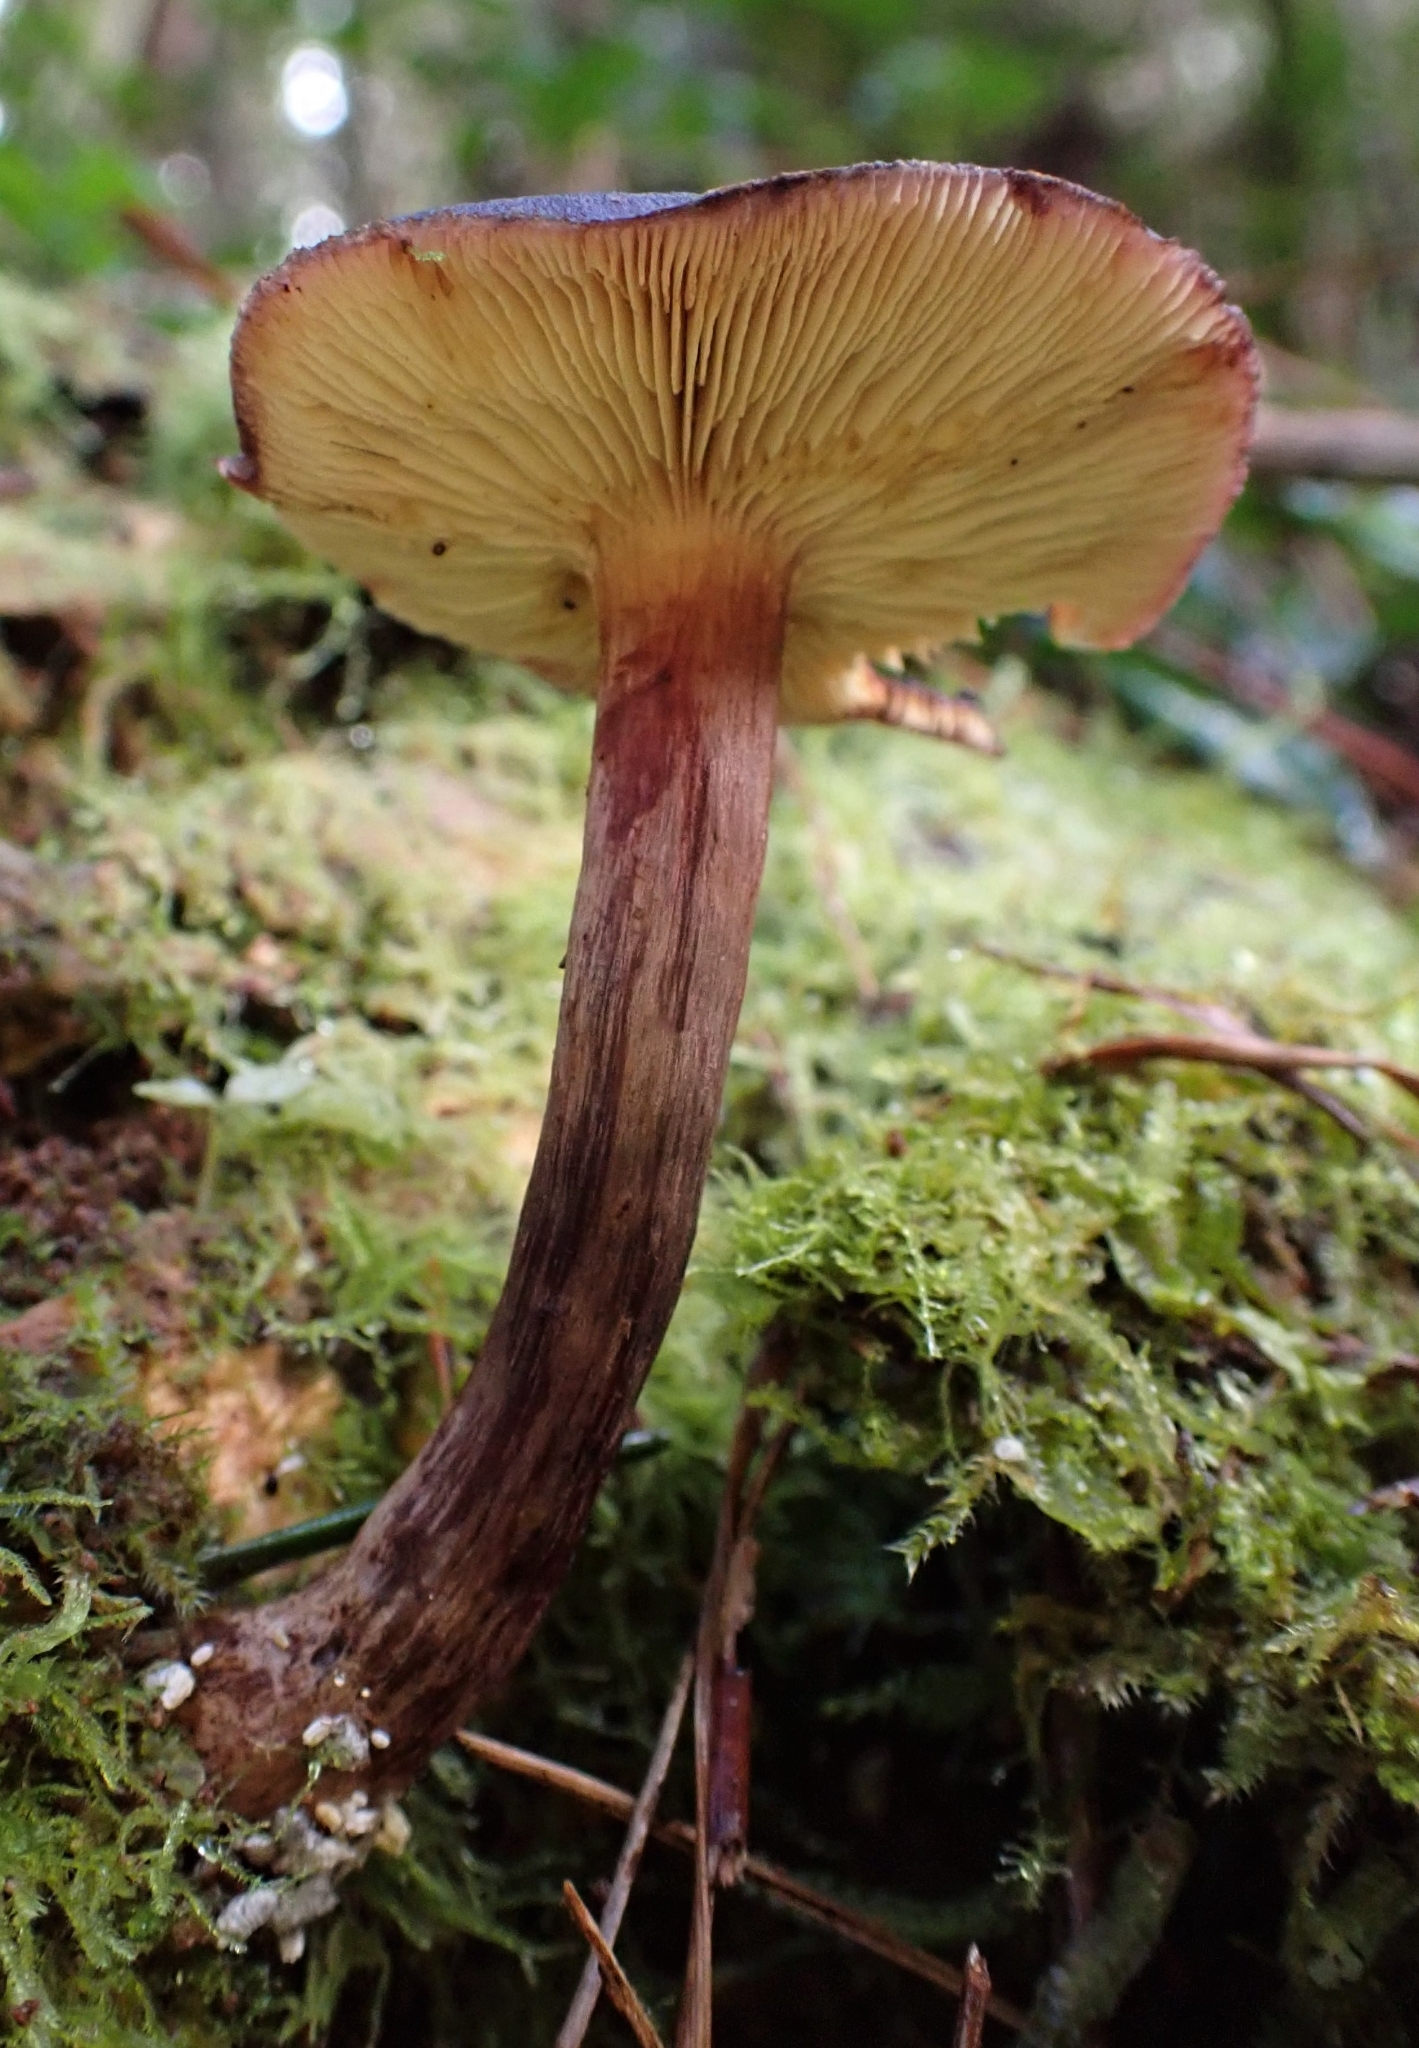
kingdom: Fungi
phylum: Basidiomycota
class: Agaricomycetes
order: Agaricales
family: Hymenogastraceae
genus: Gymnopilus
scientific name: Gymnopilus purpuratus
